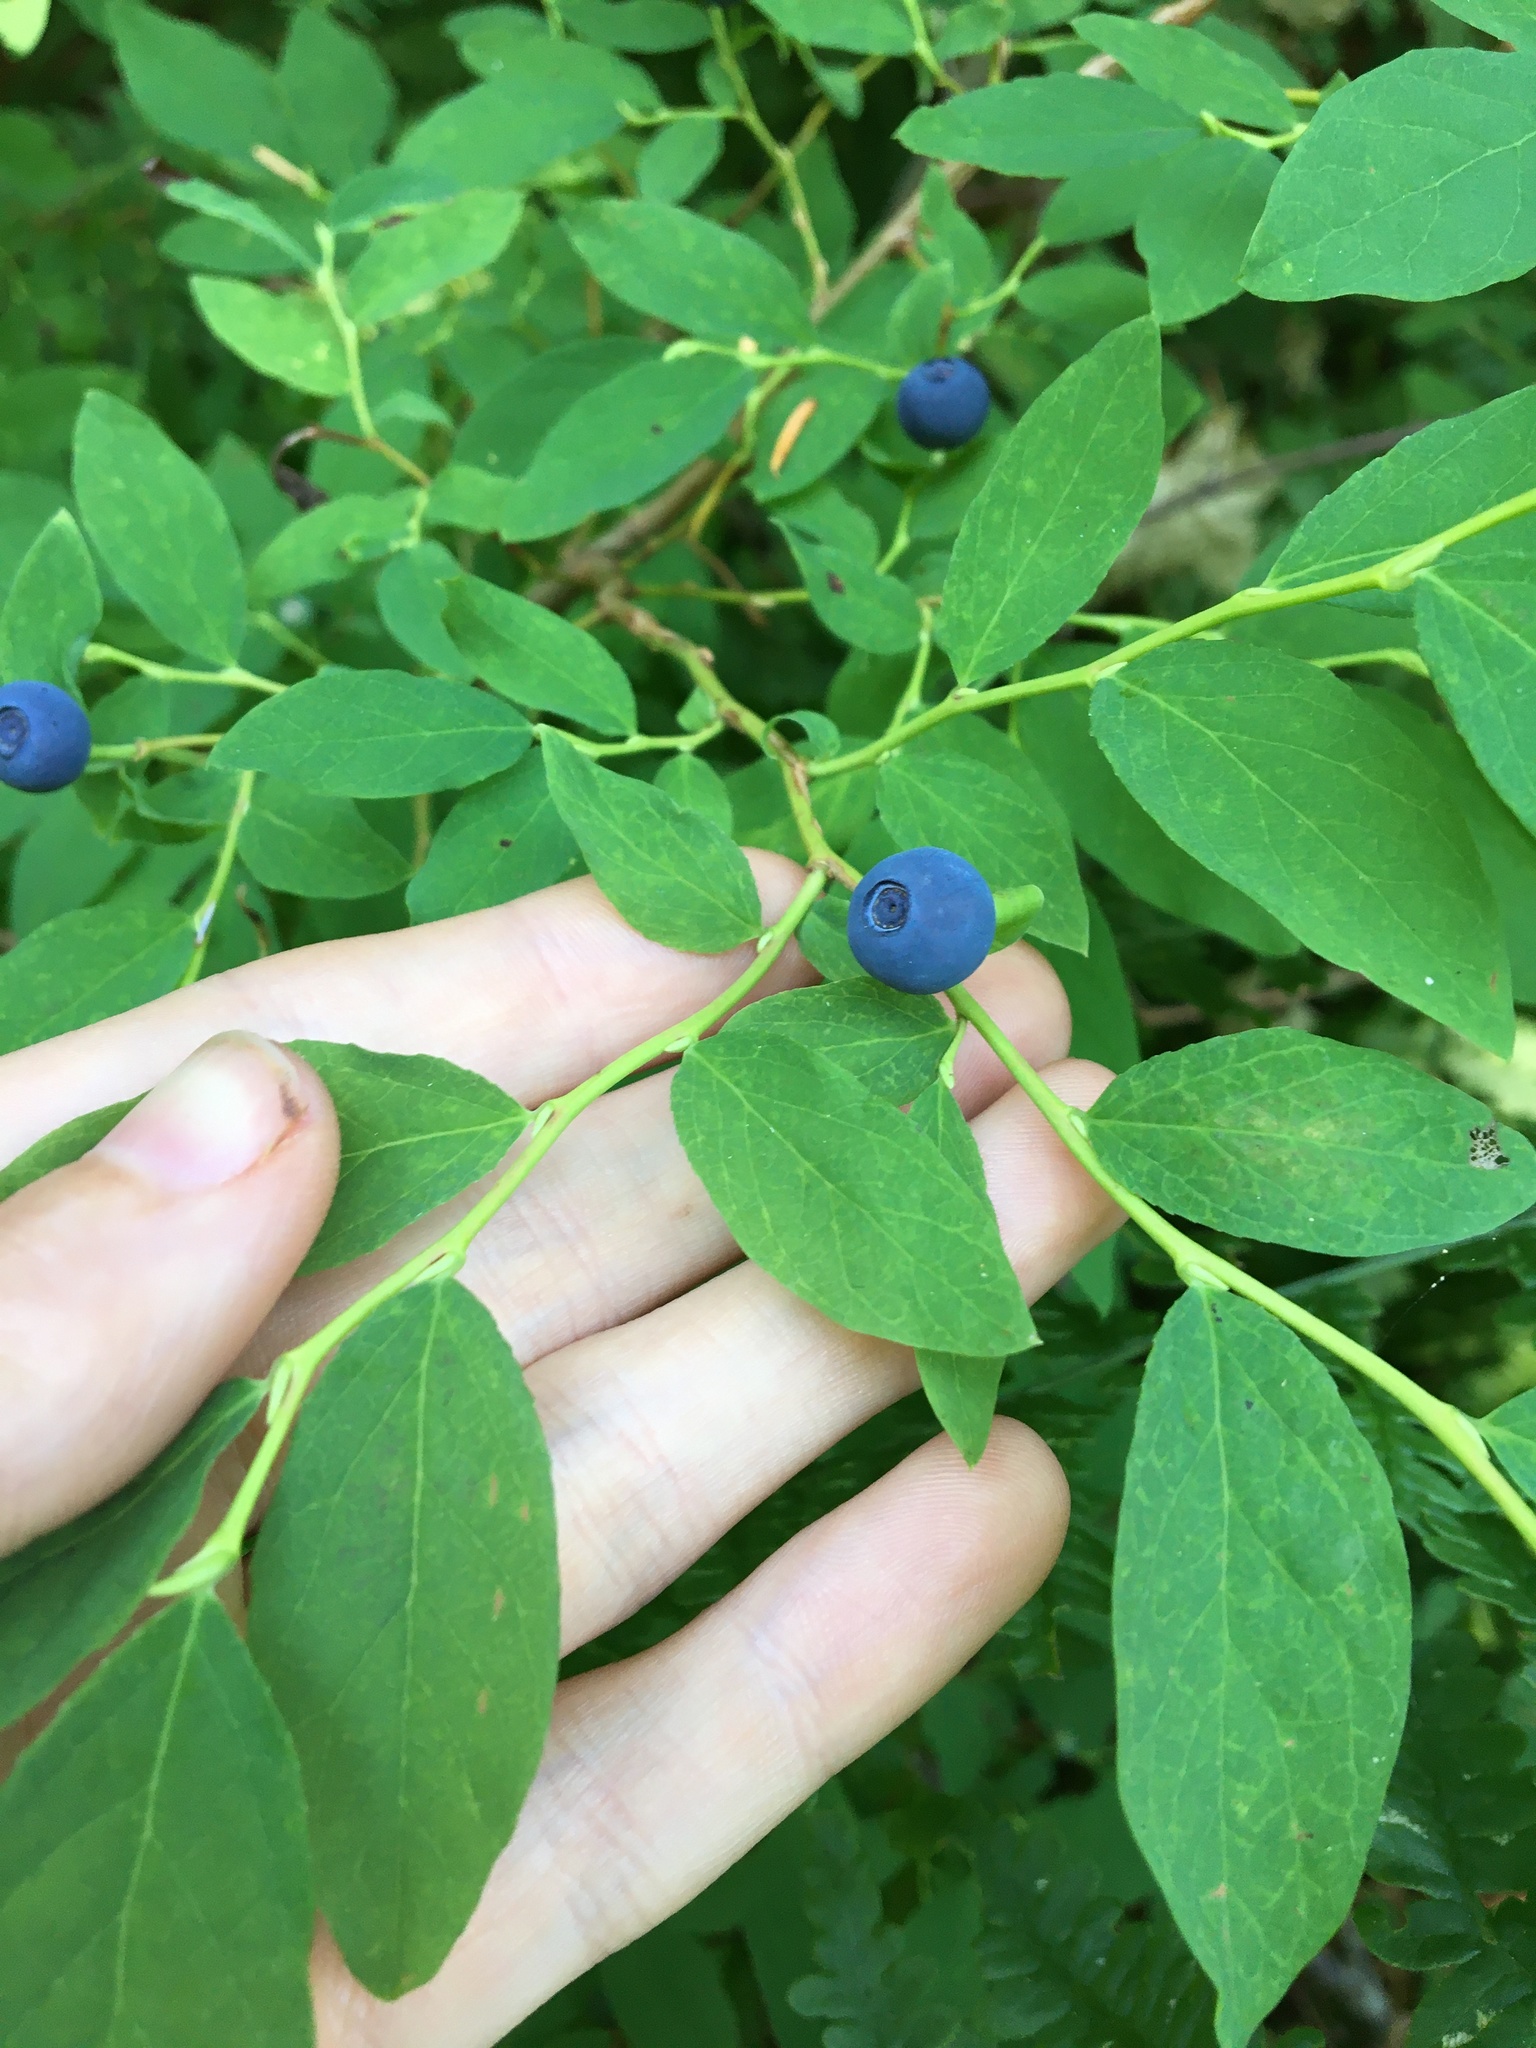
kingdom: Plantae
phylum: Tracheophyta
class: Magnoliopsida
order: Ericales
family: Ericaceae
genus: Vaccinium
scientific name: Vaccinium ovalifolium
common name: Early blueberry
